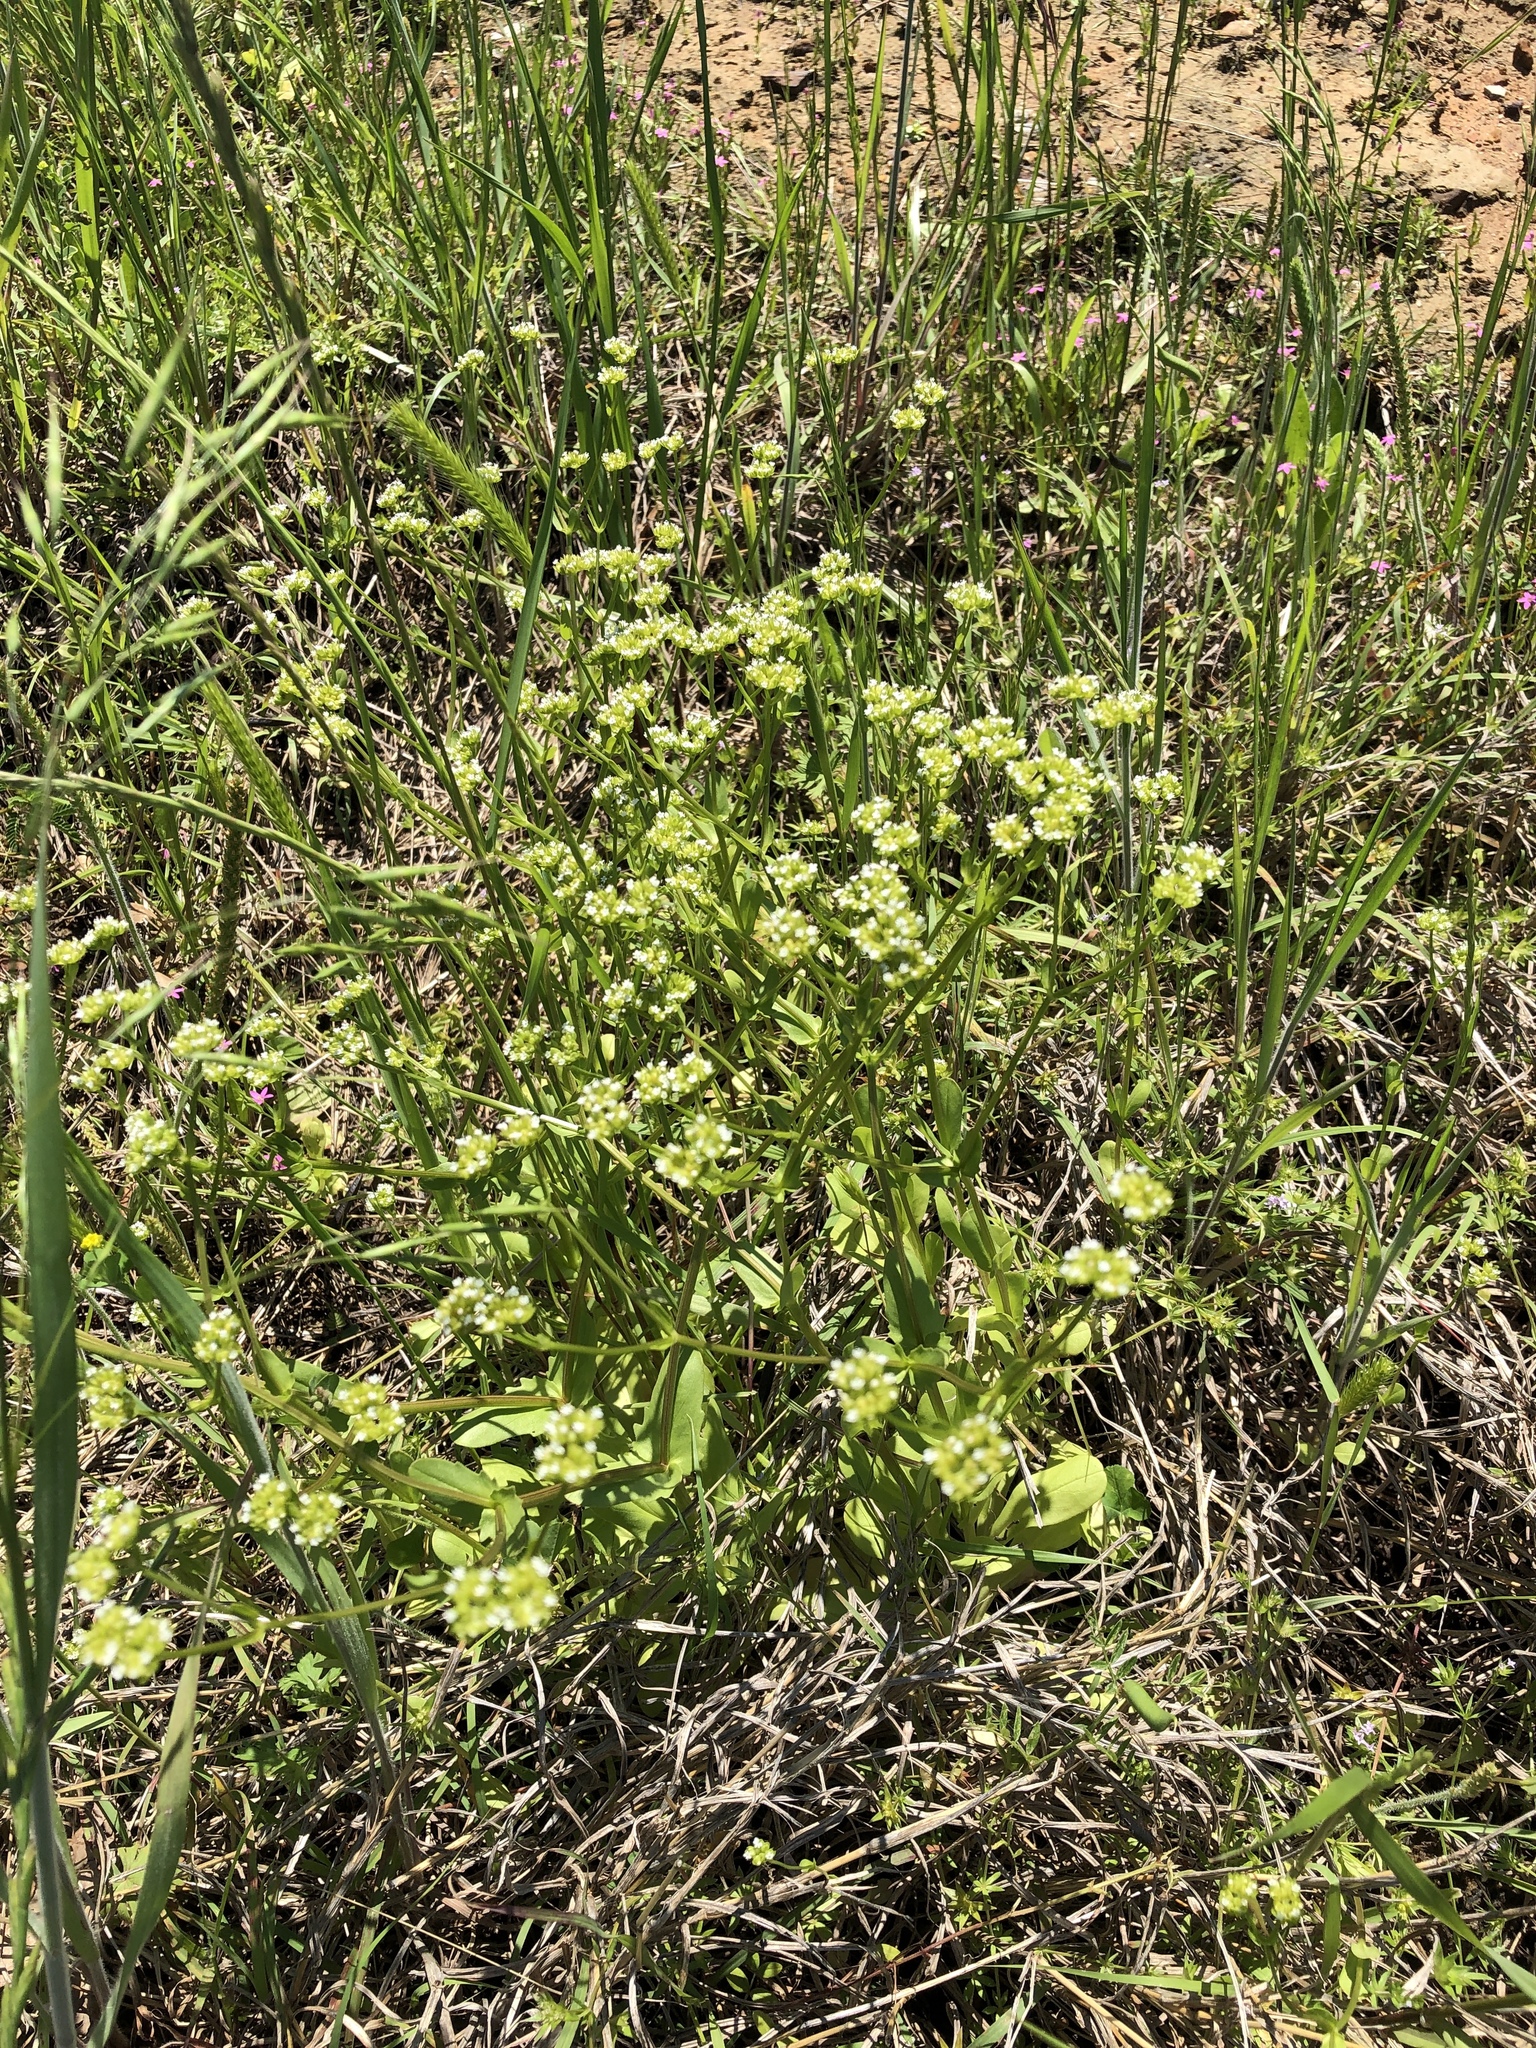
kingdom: Plantae
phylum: Tracheophyta
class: Magnoliopsida
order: Dipsacales
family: Caprifoliaceae
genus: Valerianella
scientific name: Valerianella radiata
